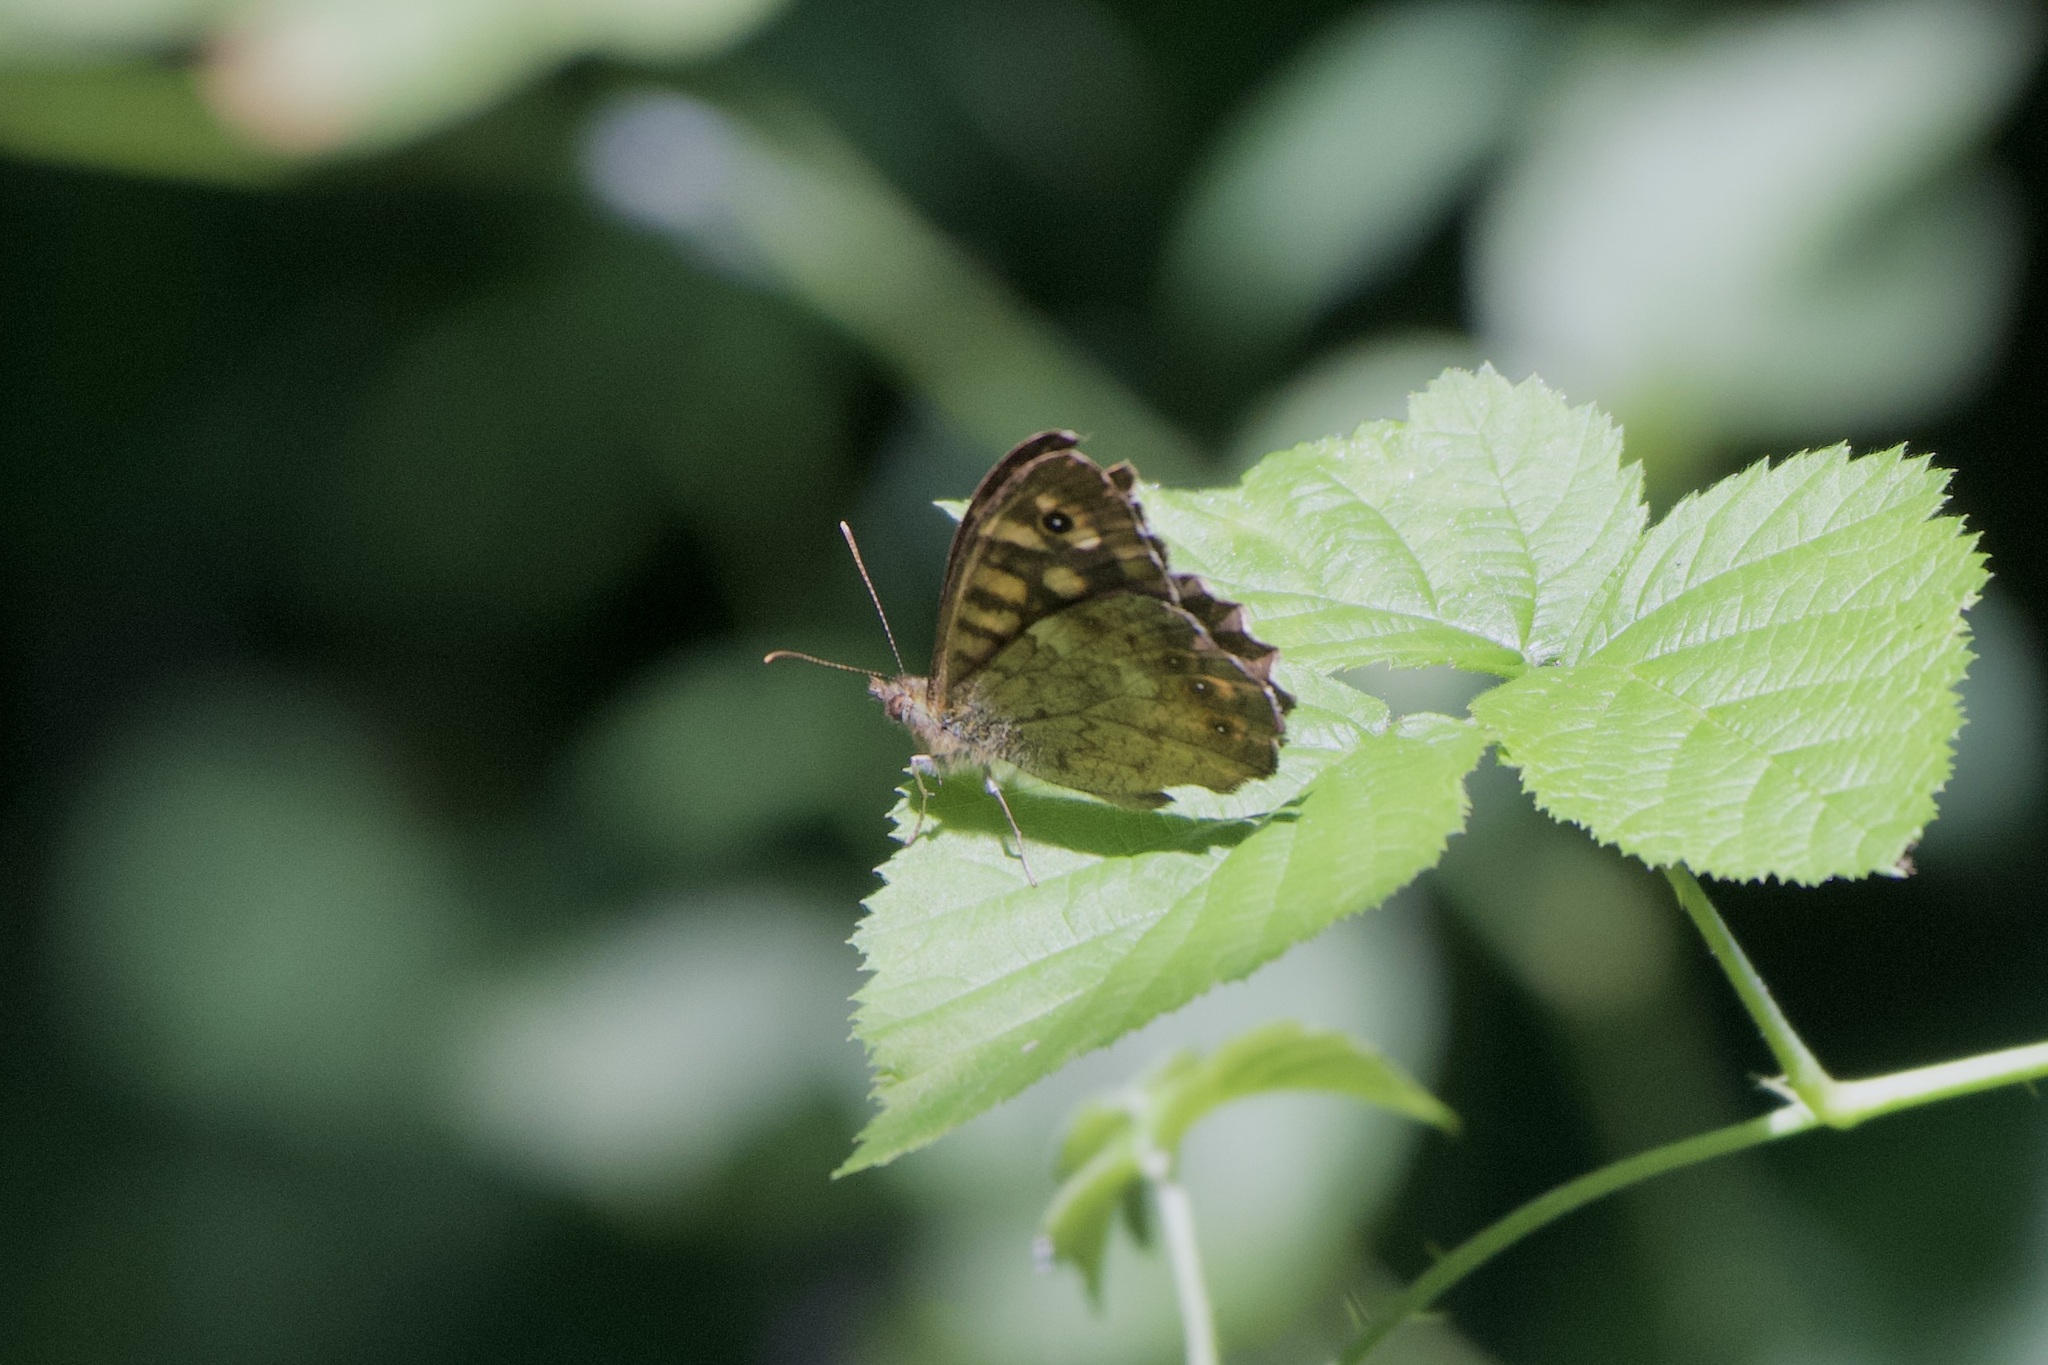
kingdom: Animalia
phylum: Arthropoda
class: Insecta
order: Lepidoptera
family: Nymphalidae
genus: Pararge
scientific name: Pararge aegeria
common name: Speckled wood
